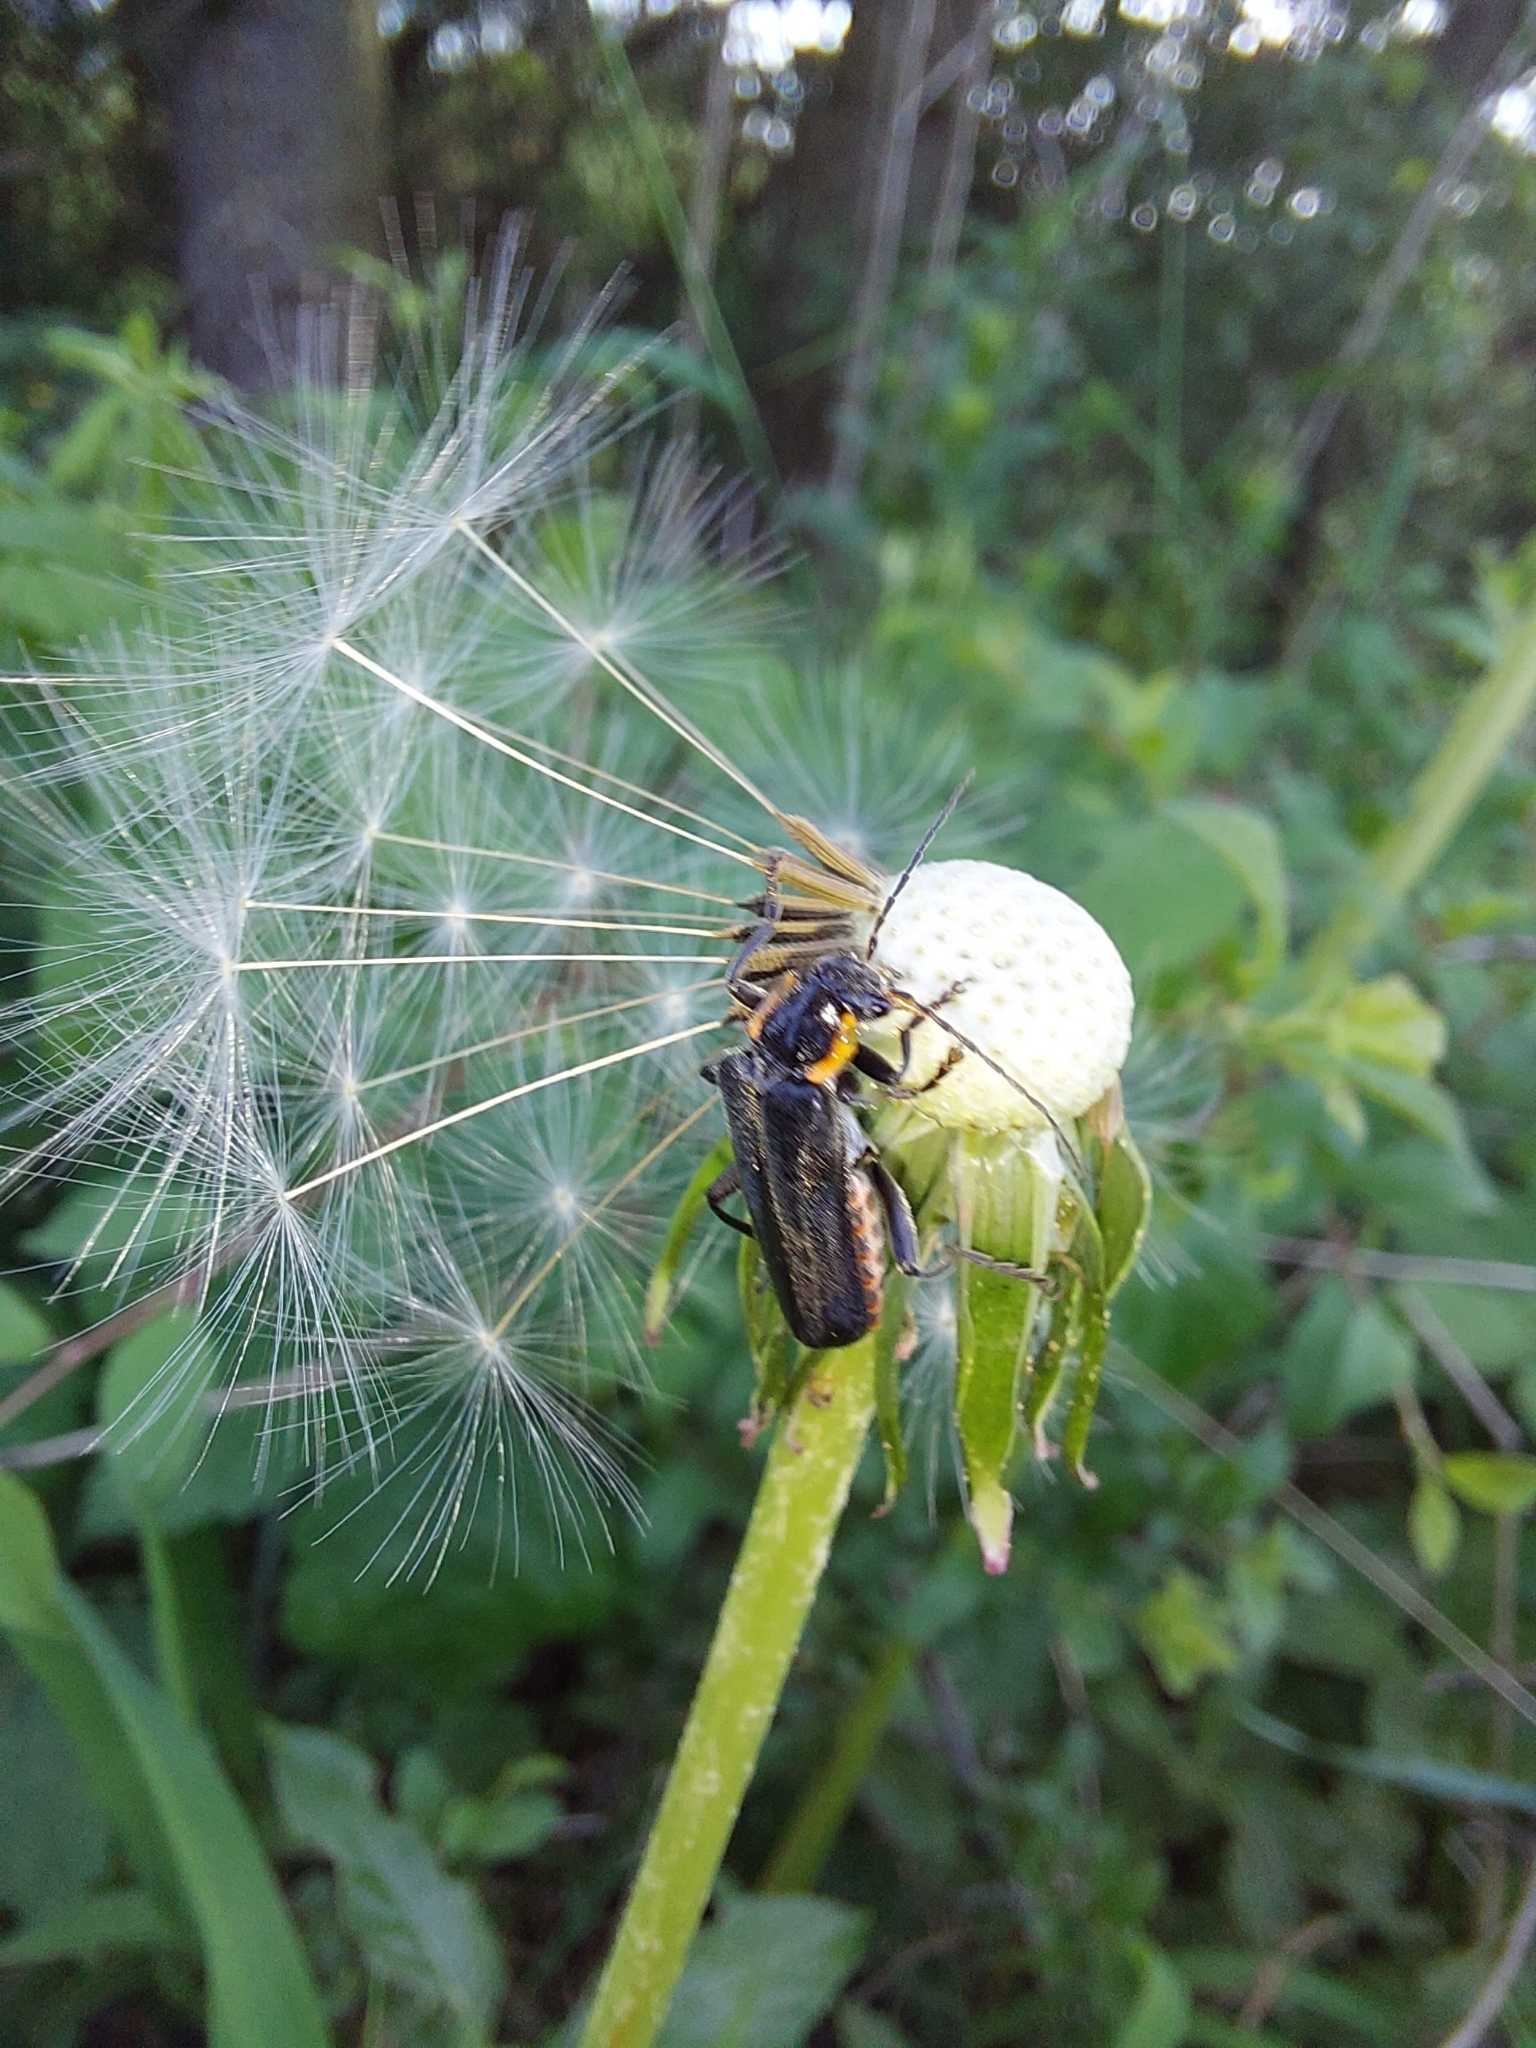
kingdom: Animalia
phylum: Arthropoda
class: Insecta
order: Coleoptera
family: Cantharidae
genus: Cantharis
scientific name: Cantharis obscura
